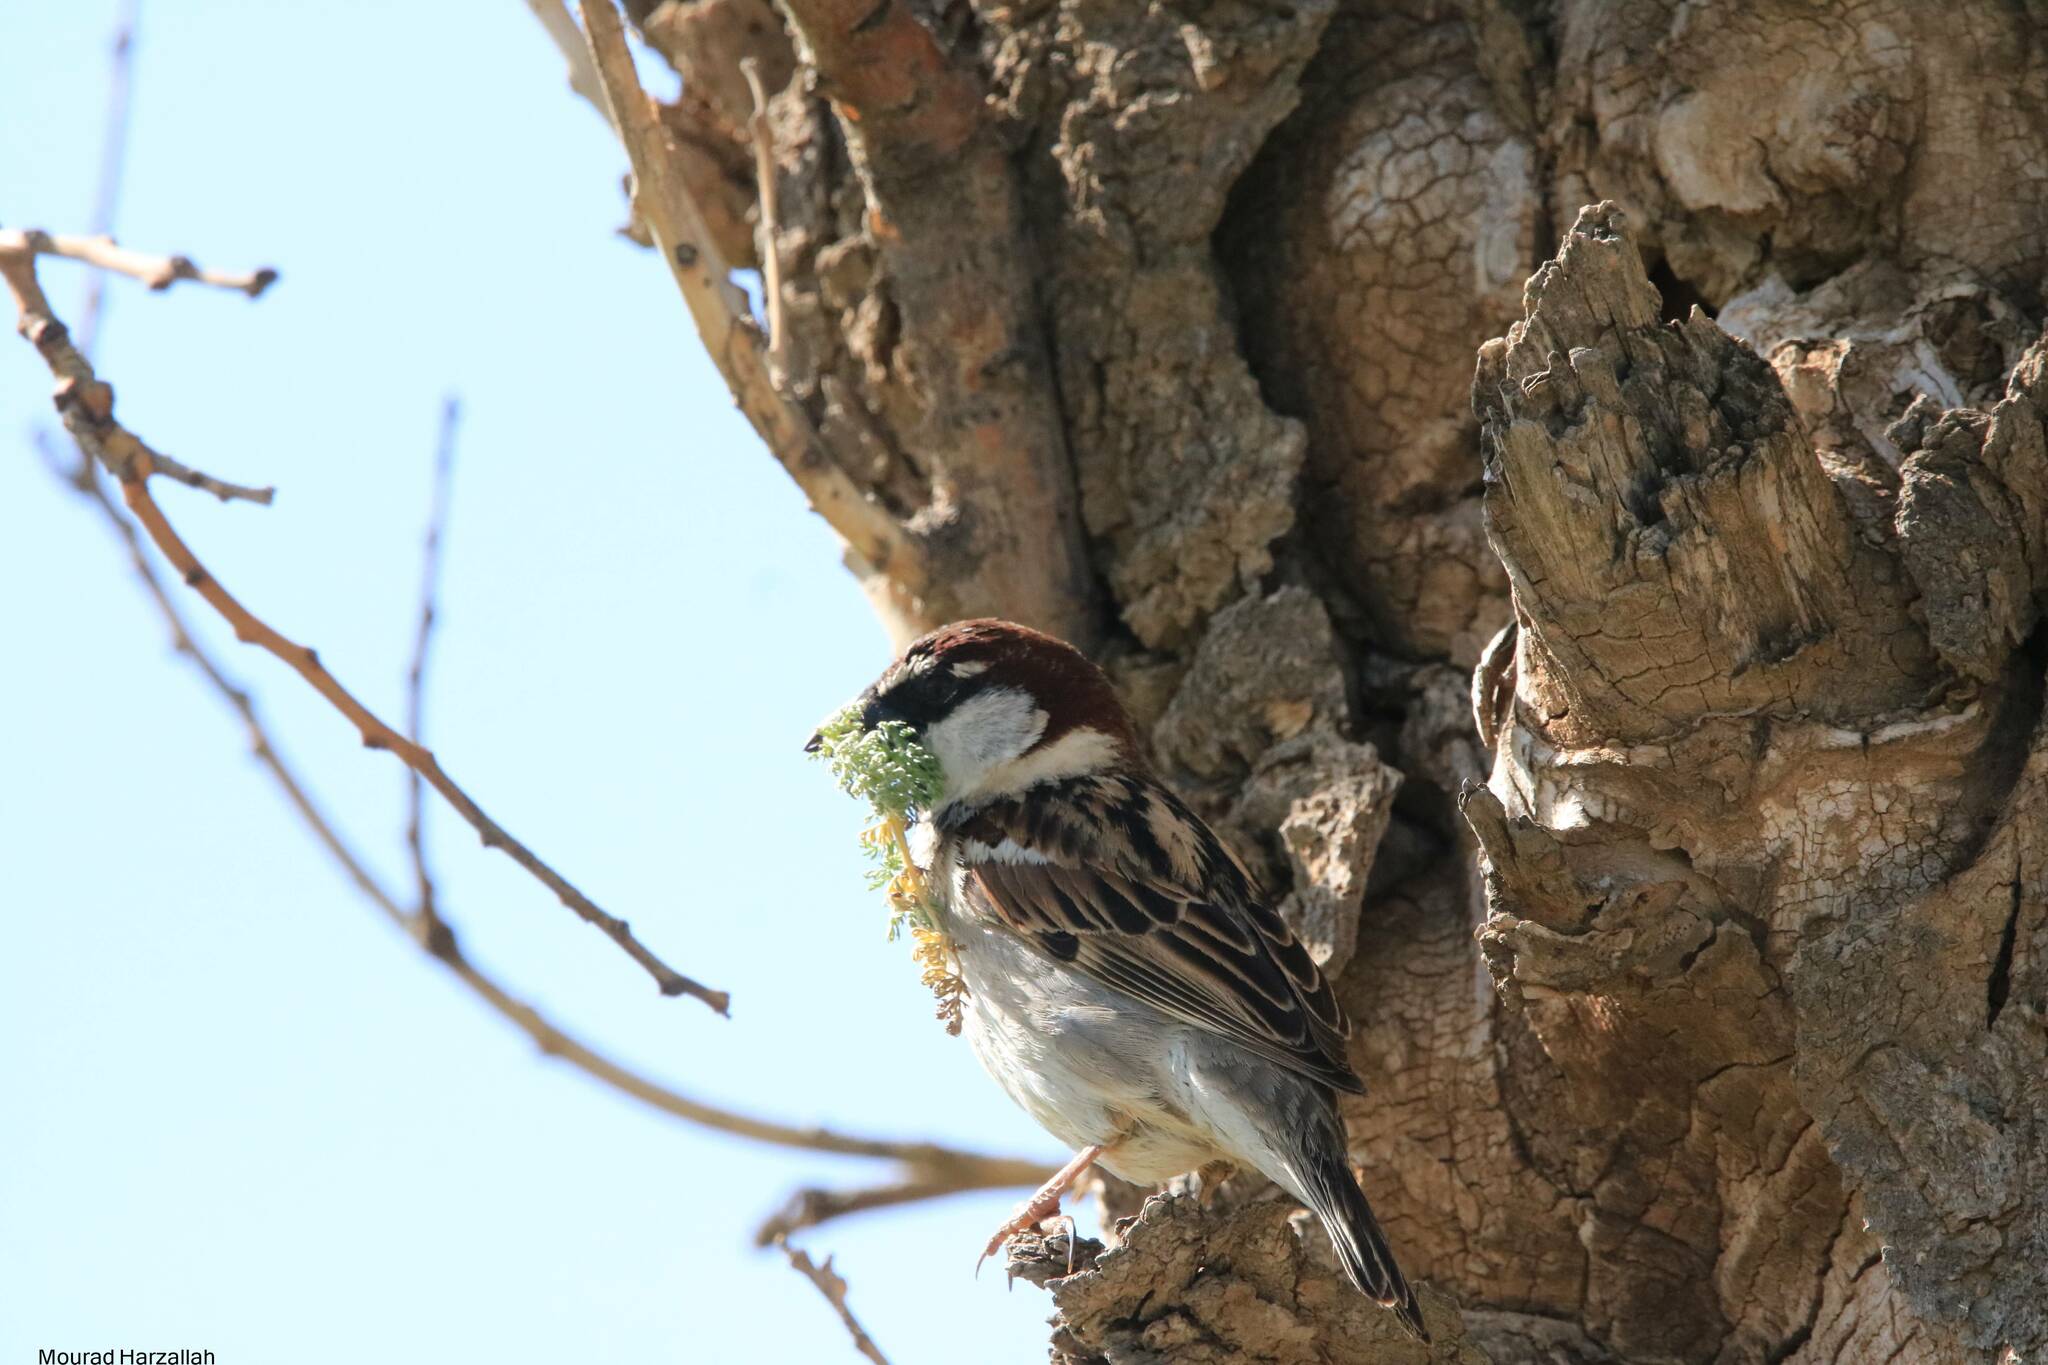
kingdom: Animalia
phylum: Chordata
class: Aves
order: Passeriformes
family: Passeridae
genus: Passer
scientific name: Passer hispaniolensis
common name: Spanish sparrow
